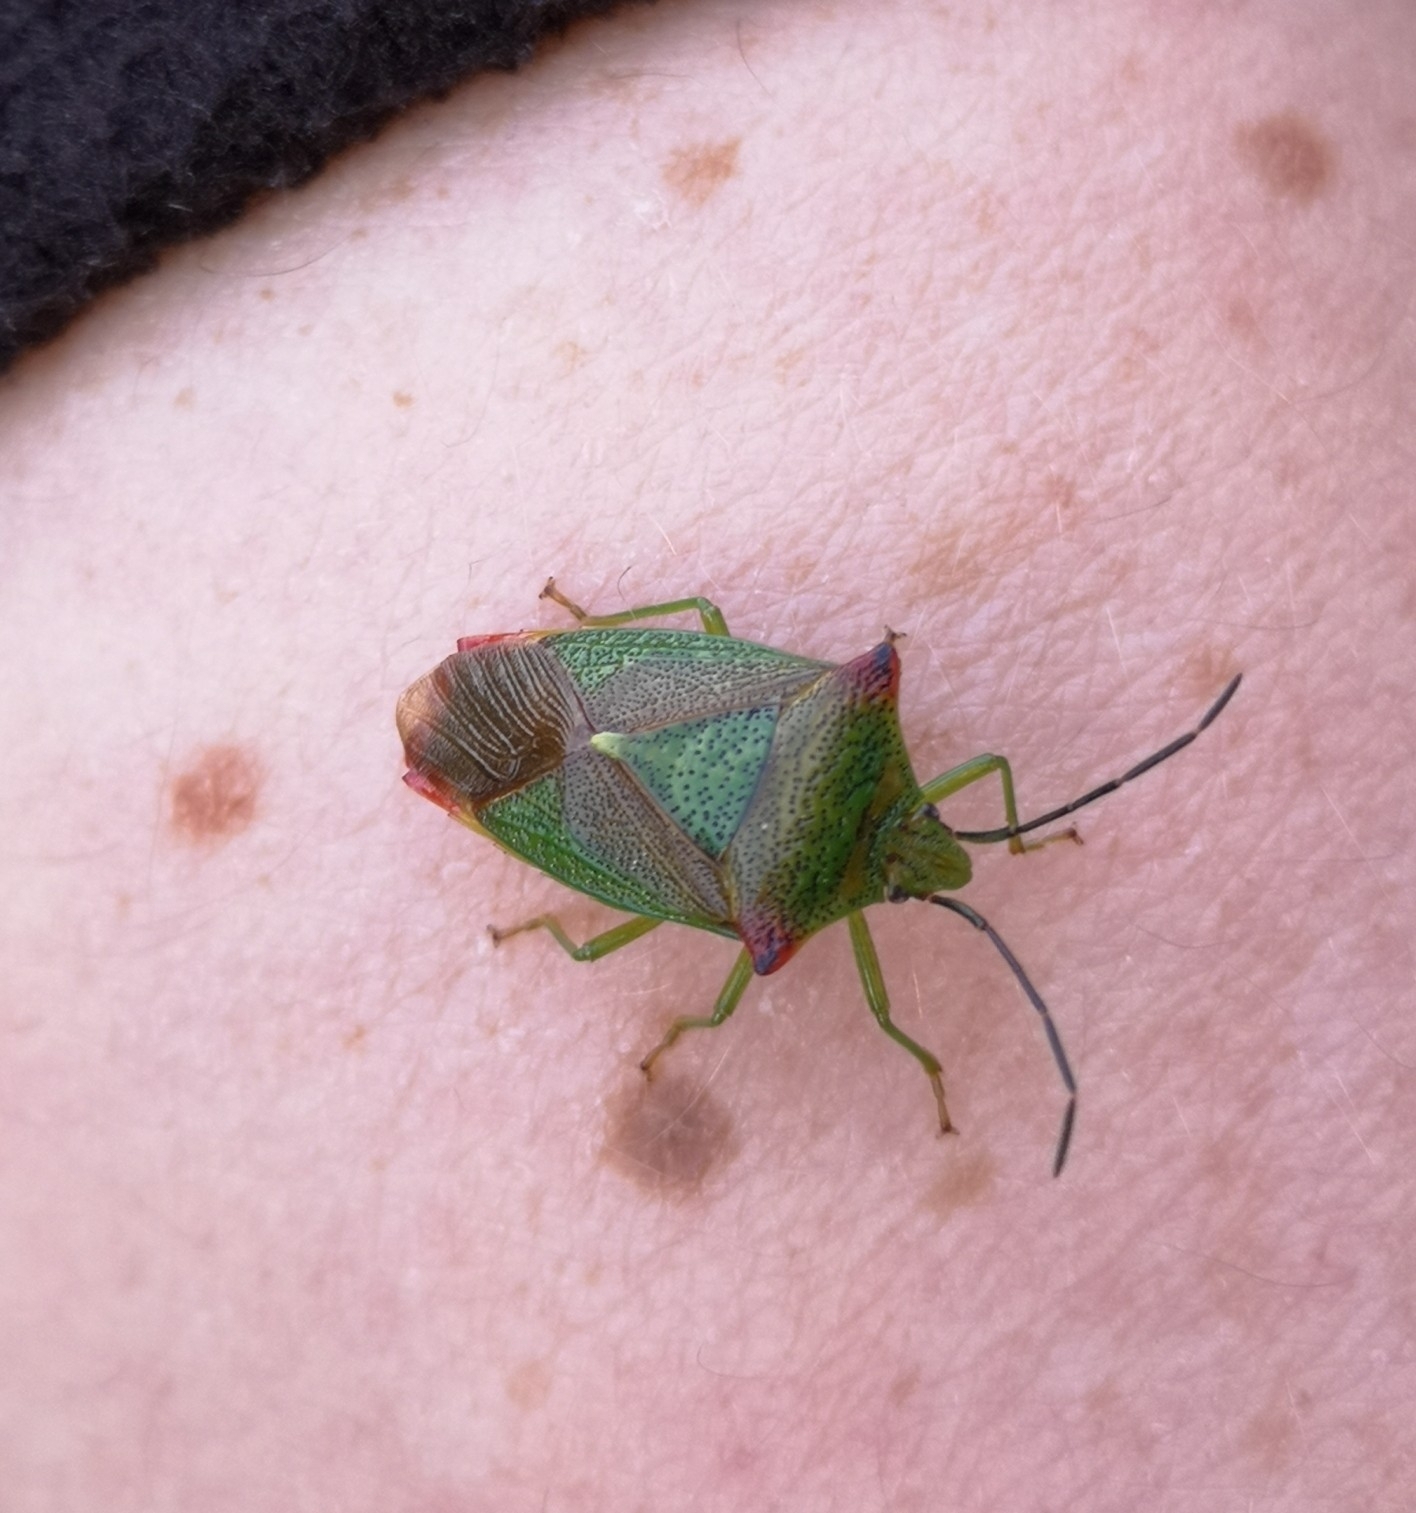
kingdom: Animalia
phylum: Arthropoda
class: Insecta
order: Hemiptera
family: Acanthosomatidae
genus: Acanthosoma
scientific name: Acanthosoma haemorrhoidale
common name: Hawthorn shieldbug
